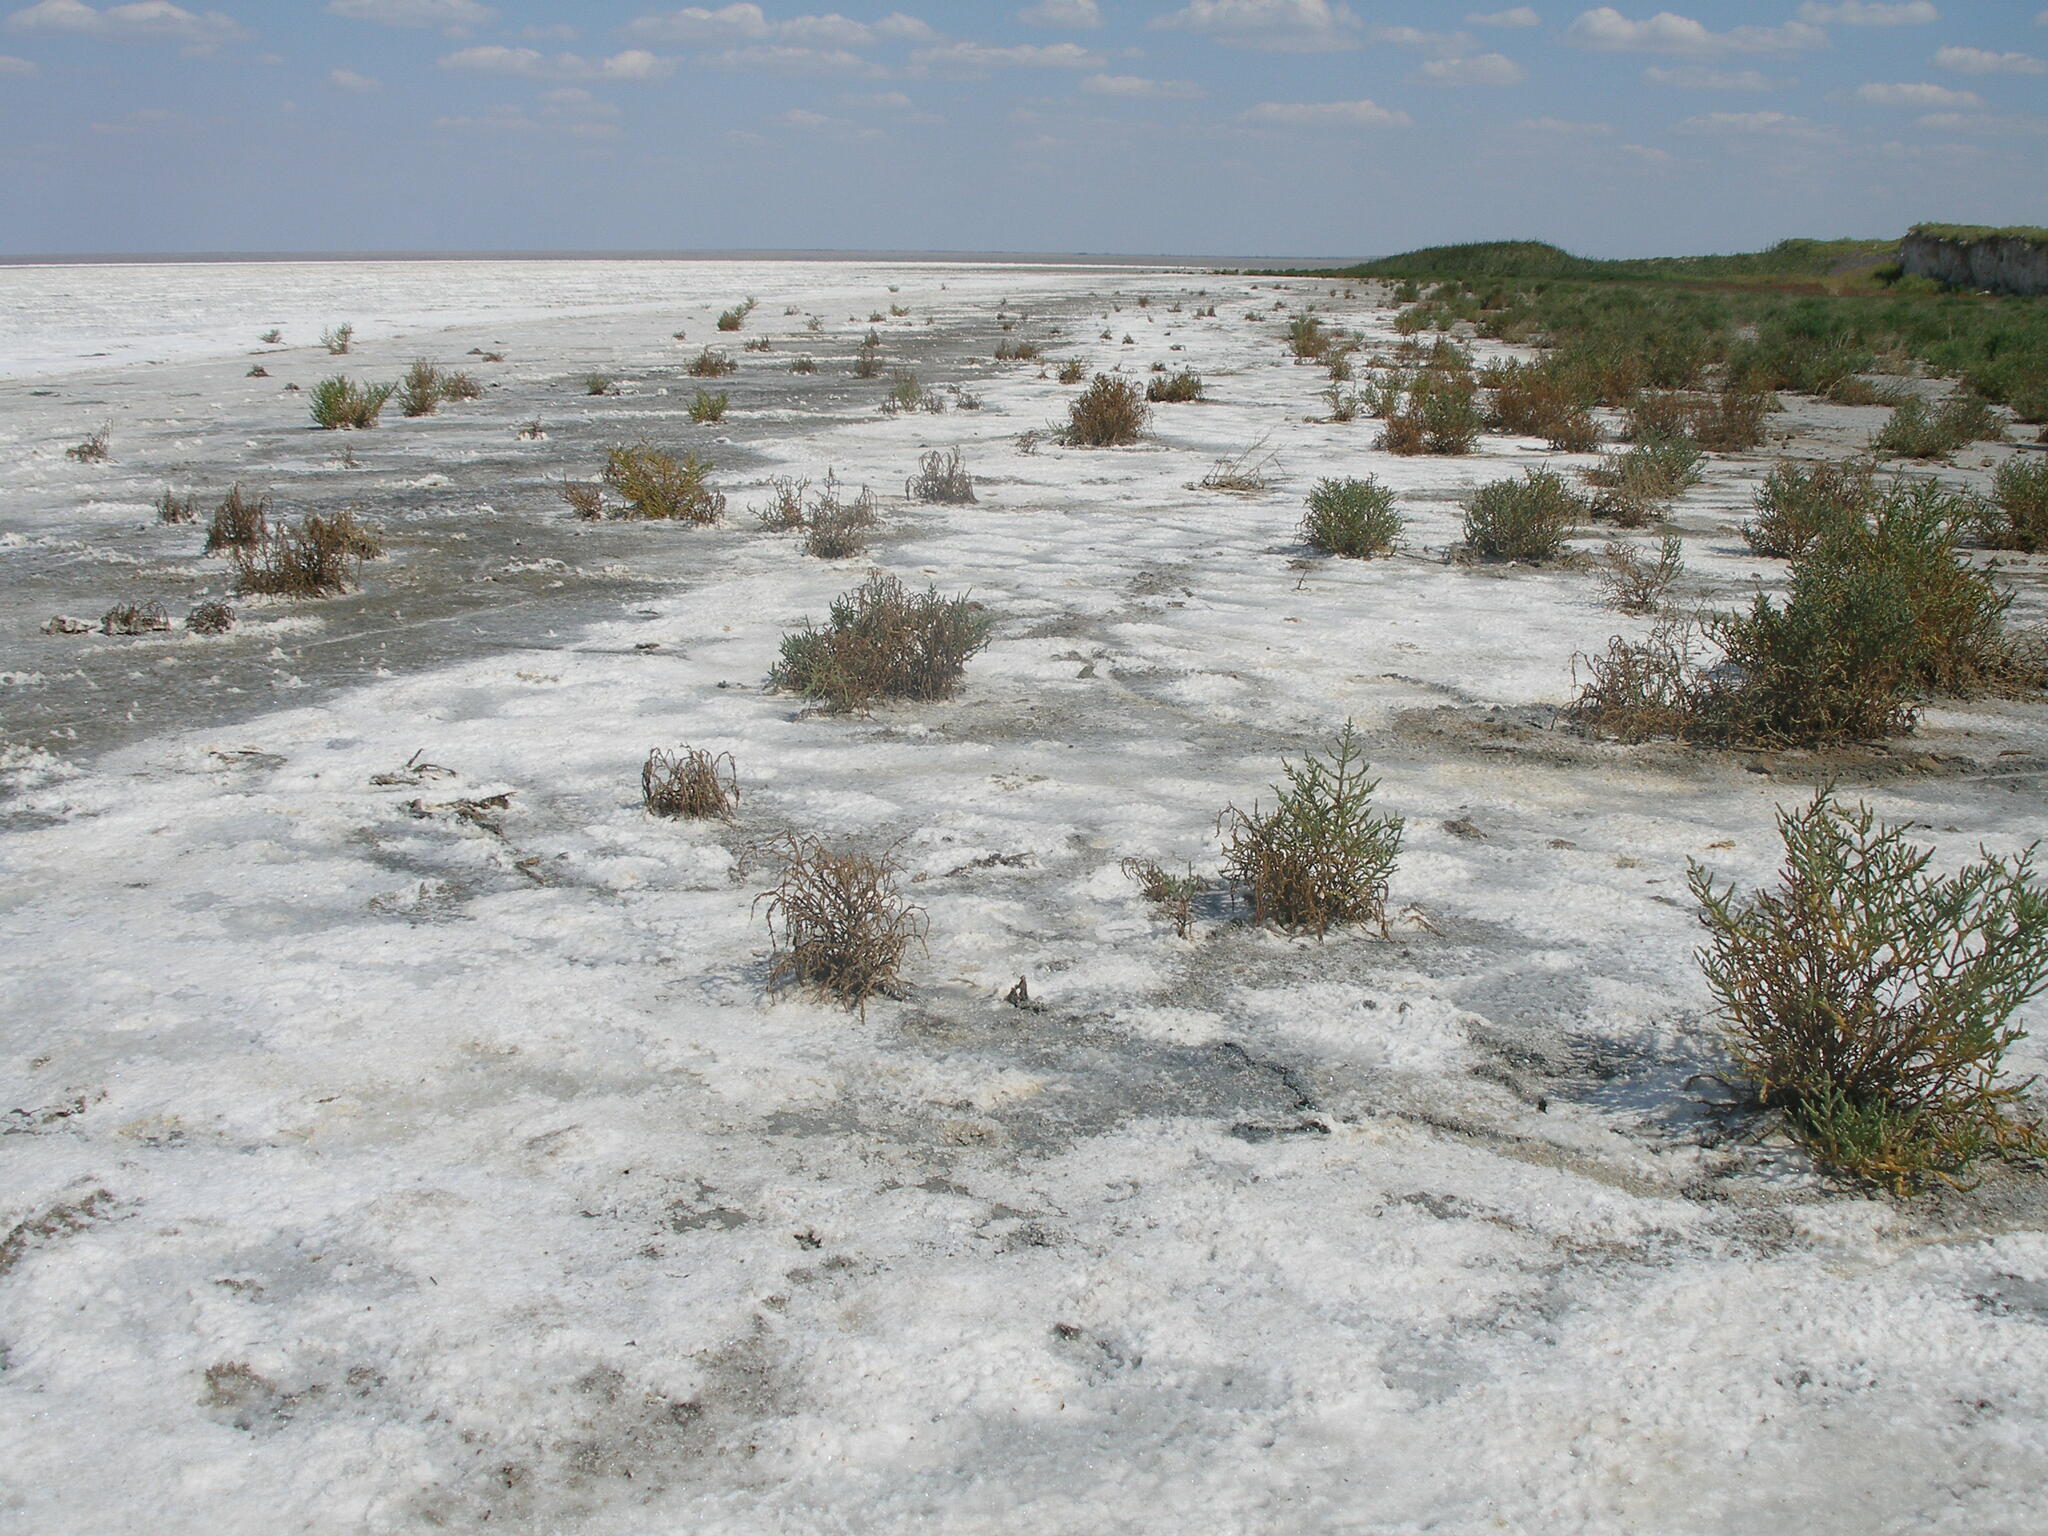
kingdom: Plantae
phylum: Tracheophyta
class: Magnoliopsida
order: Caryophyllales
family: Amaranthaceae
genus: Salicornia
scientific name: Salicornia perennans
